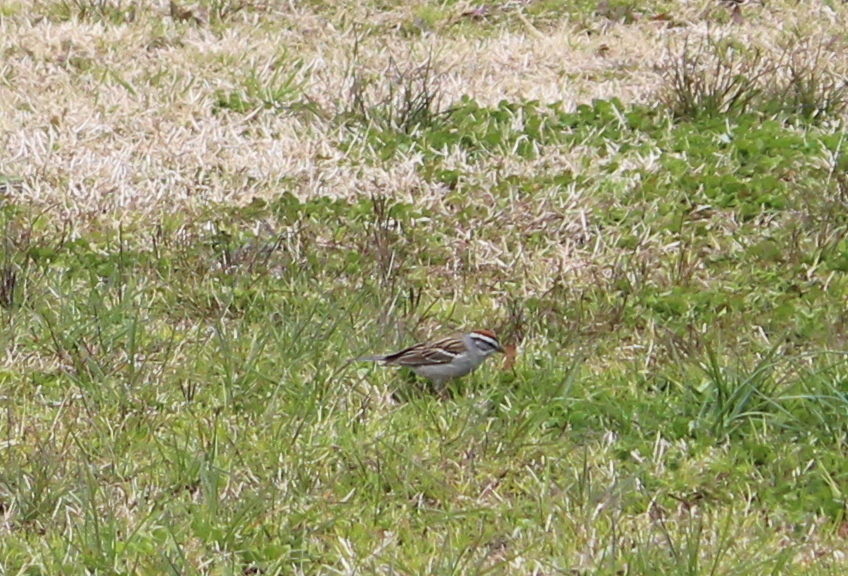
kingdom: Animalia
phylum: Chordata
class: Aves
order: Passeriformes
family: Passerellidae
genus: Spizella
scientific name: Spizella passerina
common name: Chipping sparrow
